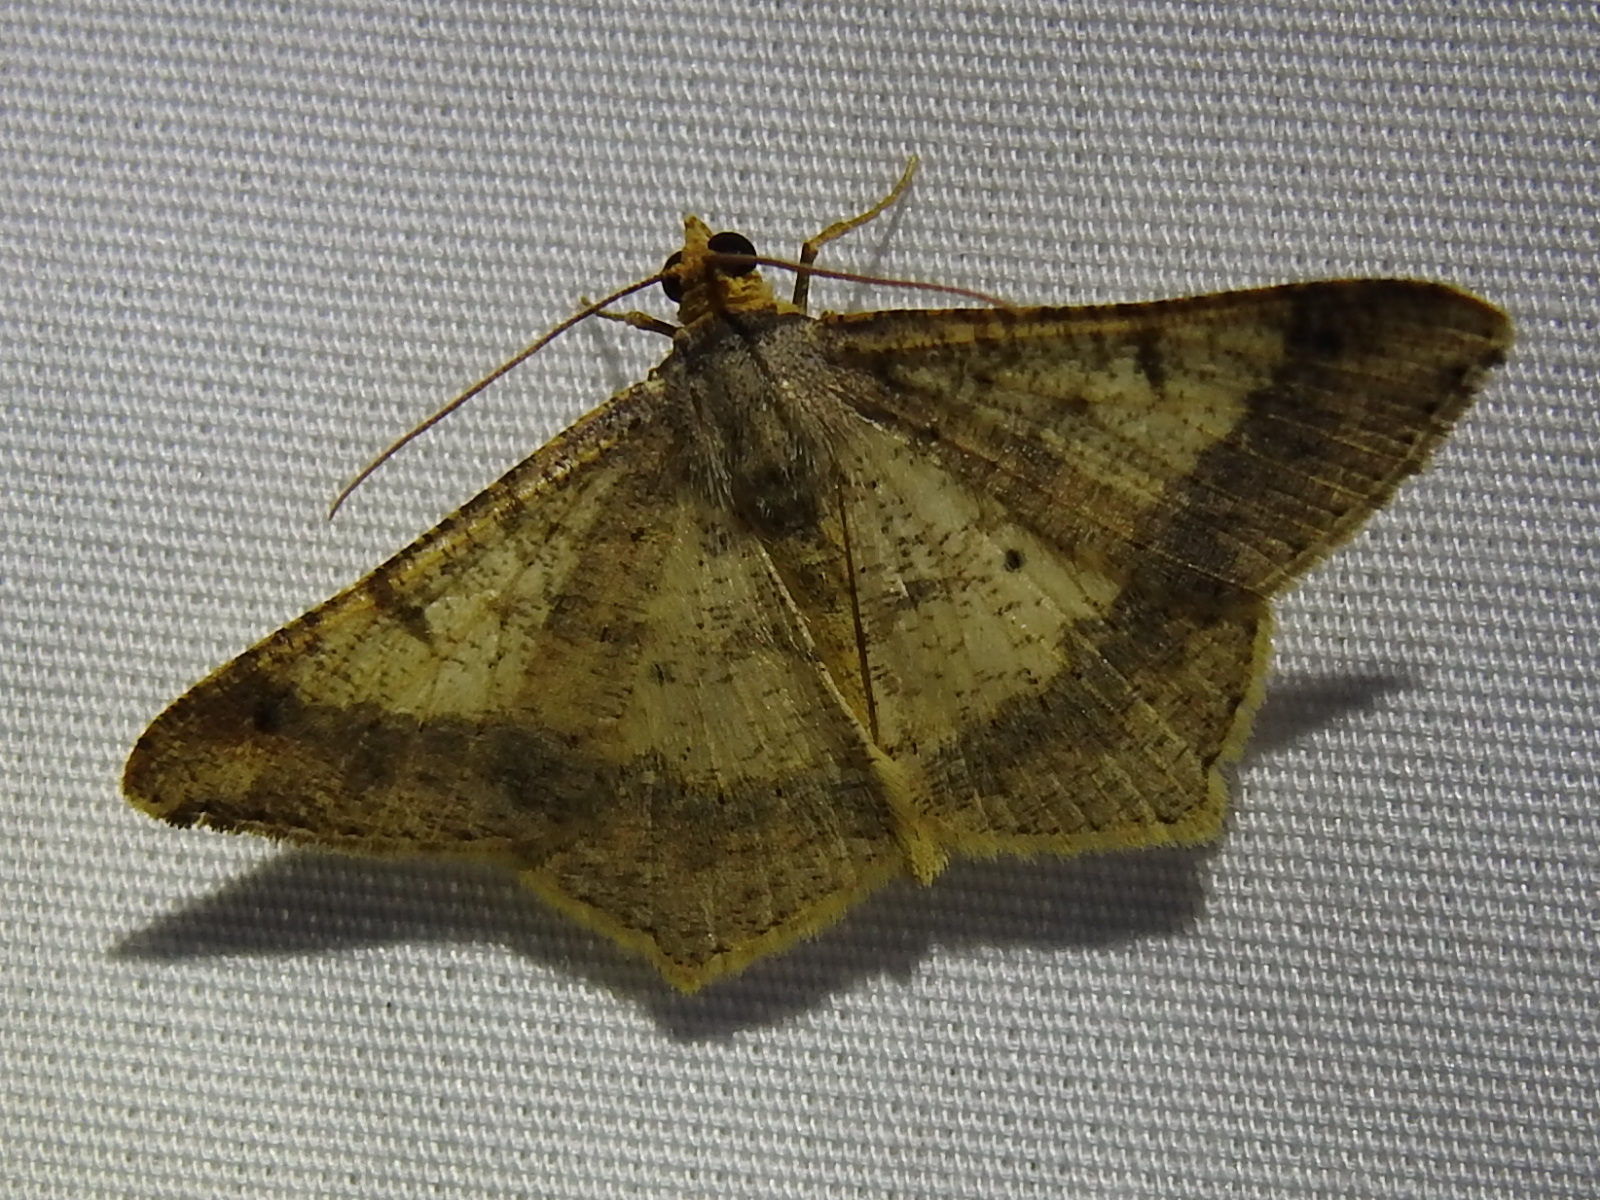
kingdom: Animalia
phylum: Arthropoda
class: Insecta
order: Lepidoptera
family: Geometridae
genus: Macaria
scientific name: Macaria abydata
